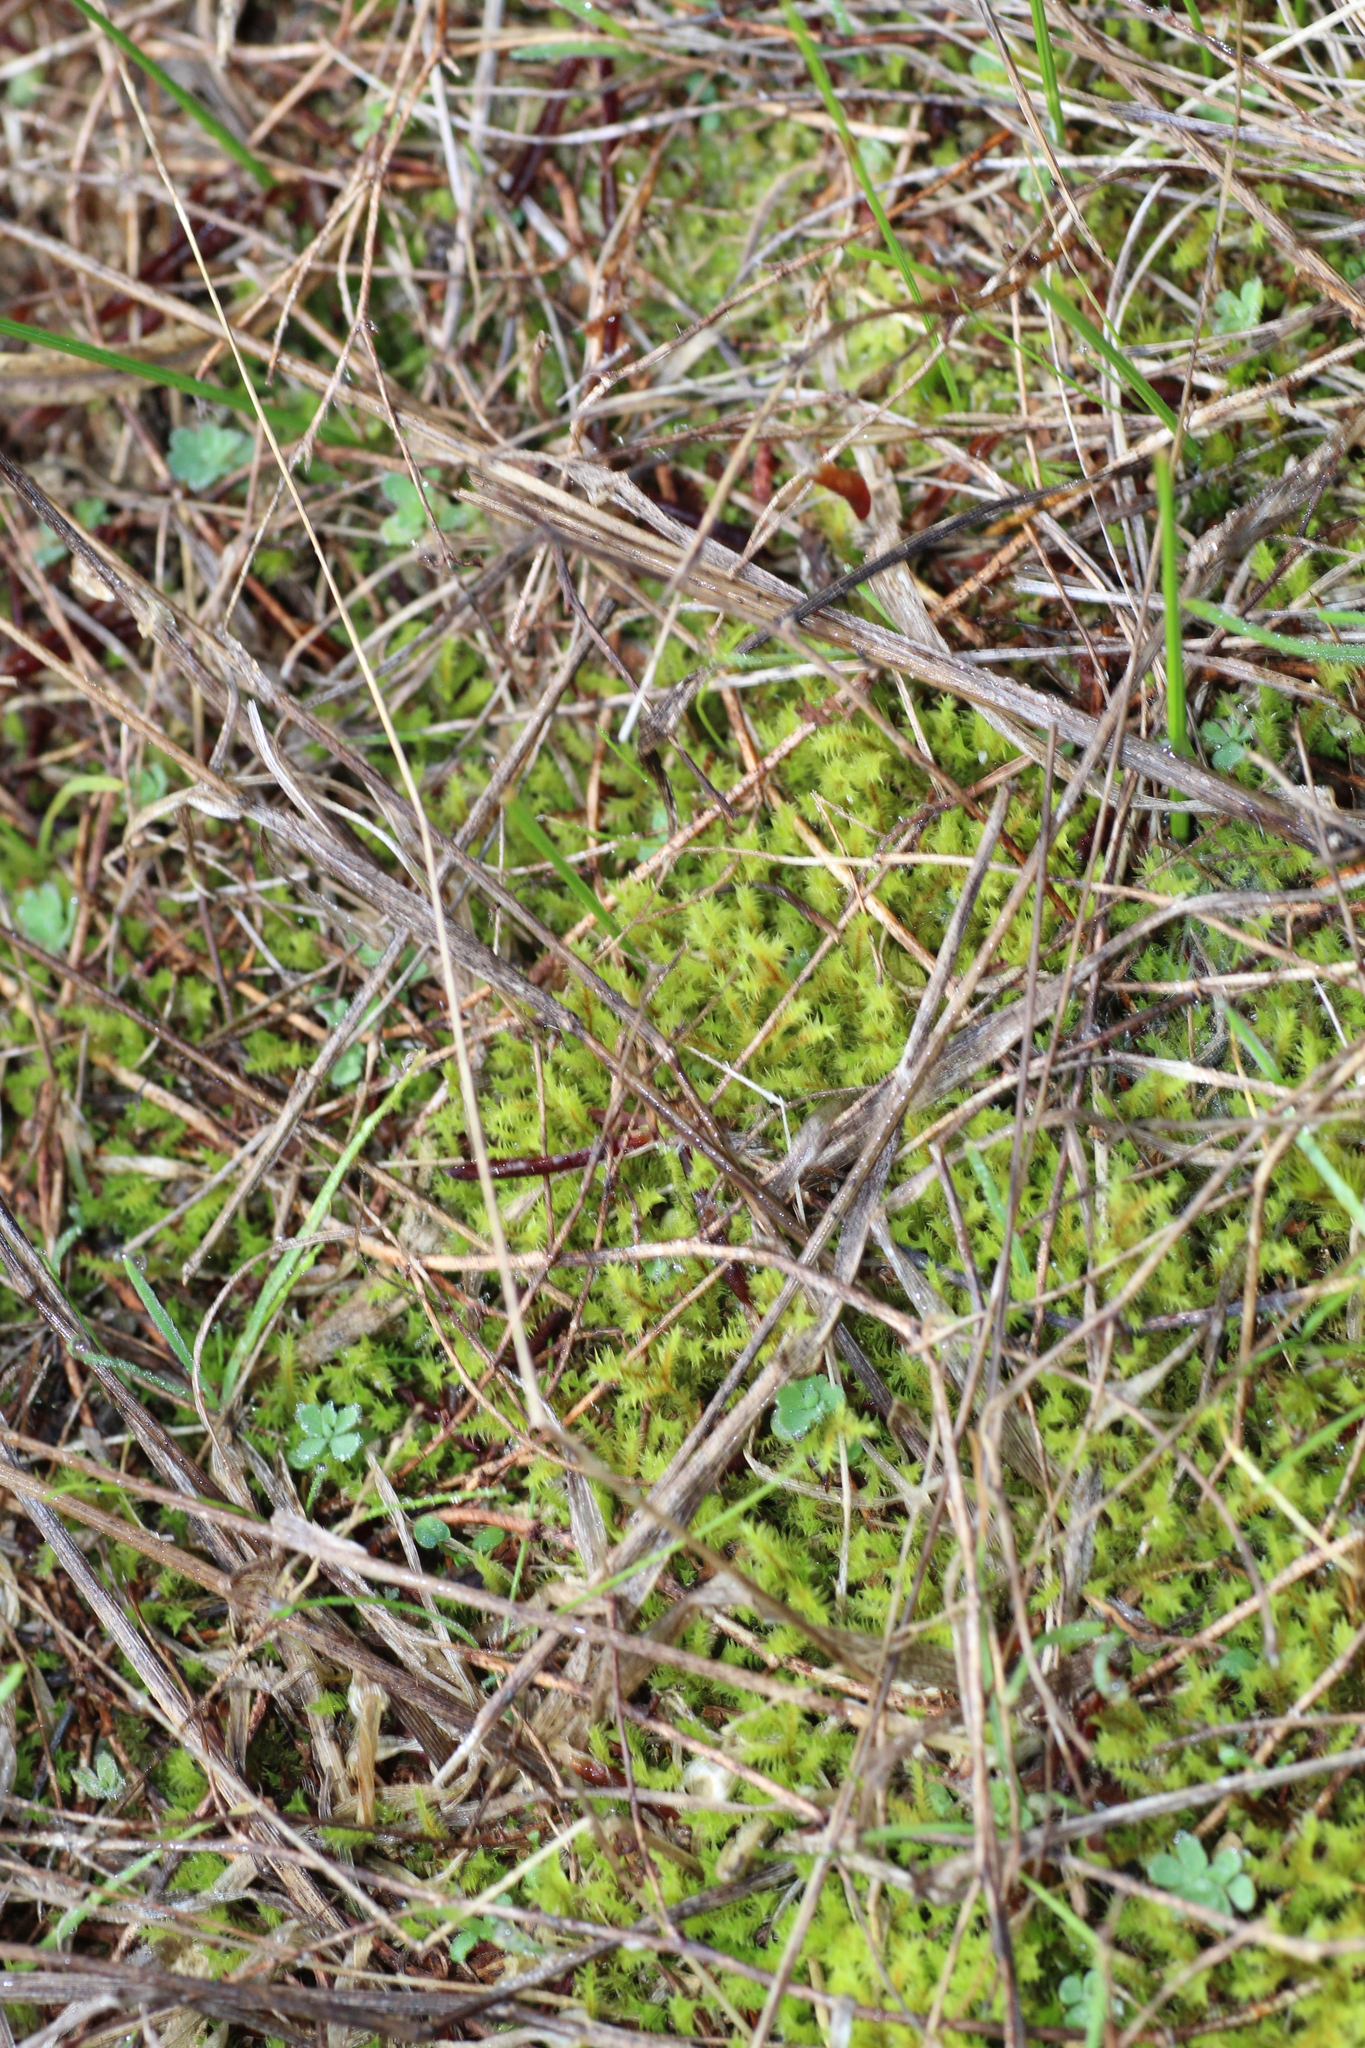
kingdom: Plantae
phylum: Bryophyta
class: Bryopsida
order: Pottiales
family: Pottiaceae
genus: Triquetrella
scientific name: Triquetrella papillata
